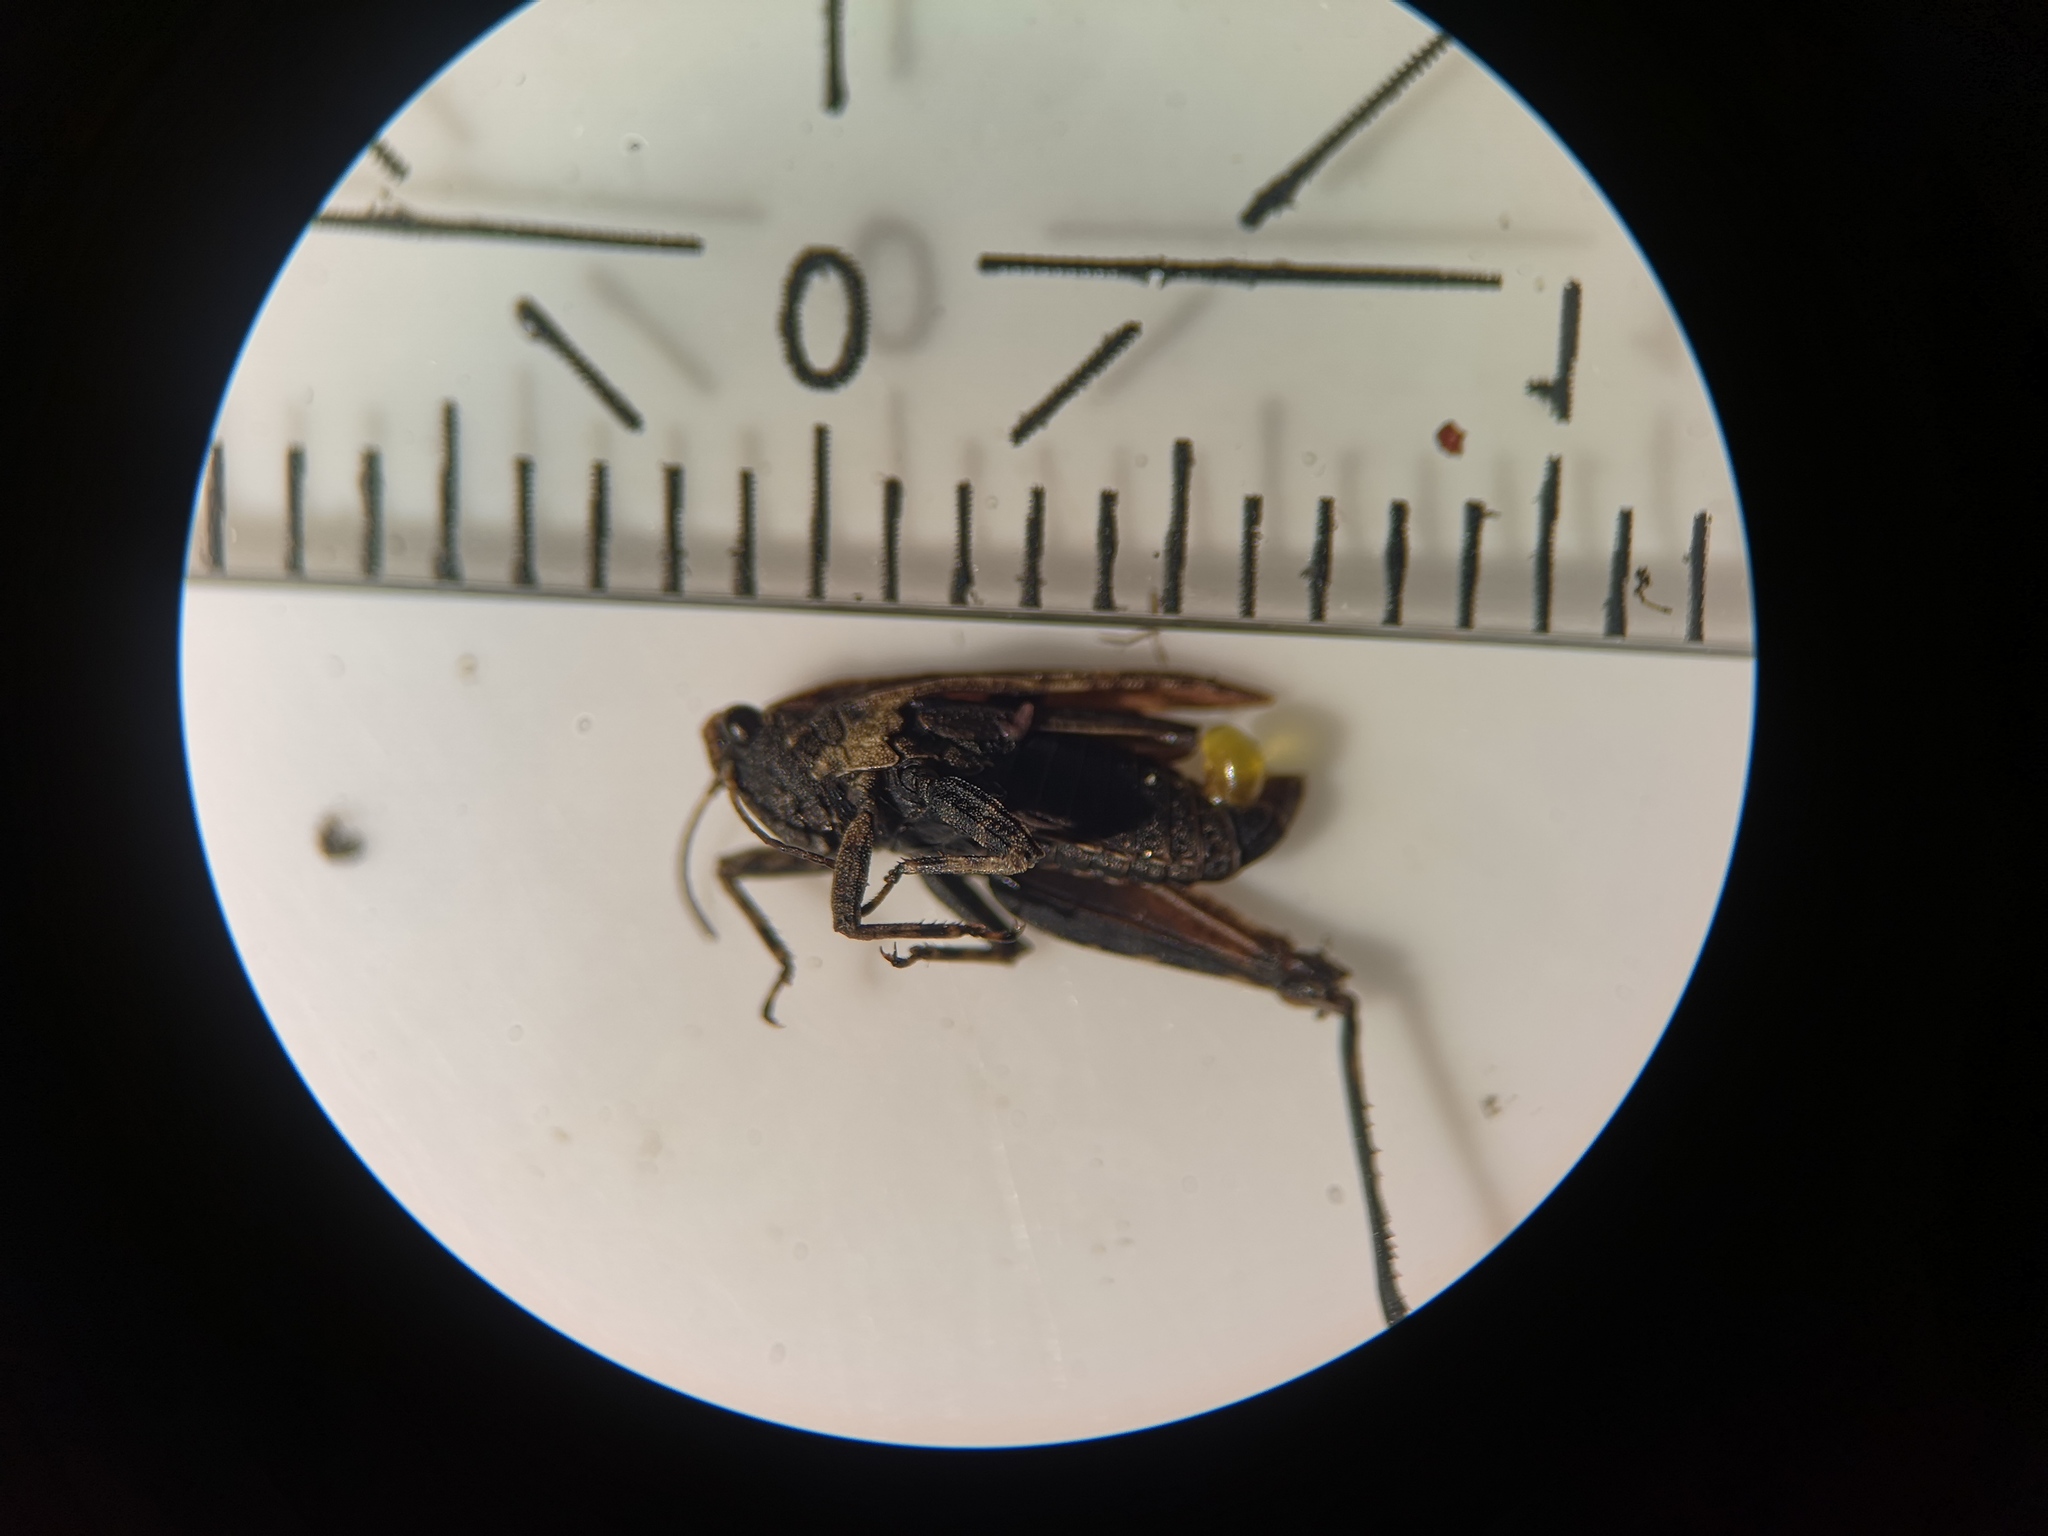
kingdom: Animalia
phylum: Arthropoda
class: Insecta
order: Orthoptera
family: Tetrigidae
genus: Tetrix
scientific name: Tetrix undulata
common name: Common groundhopper
